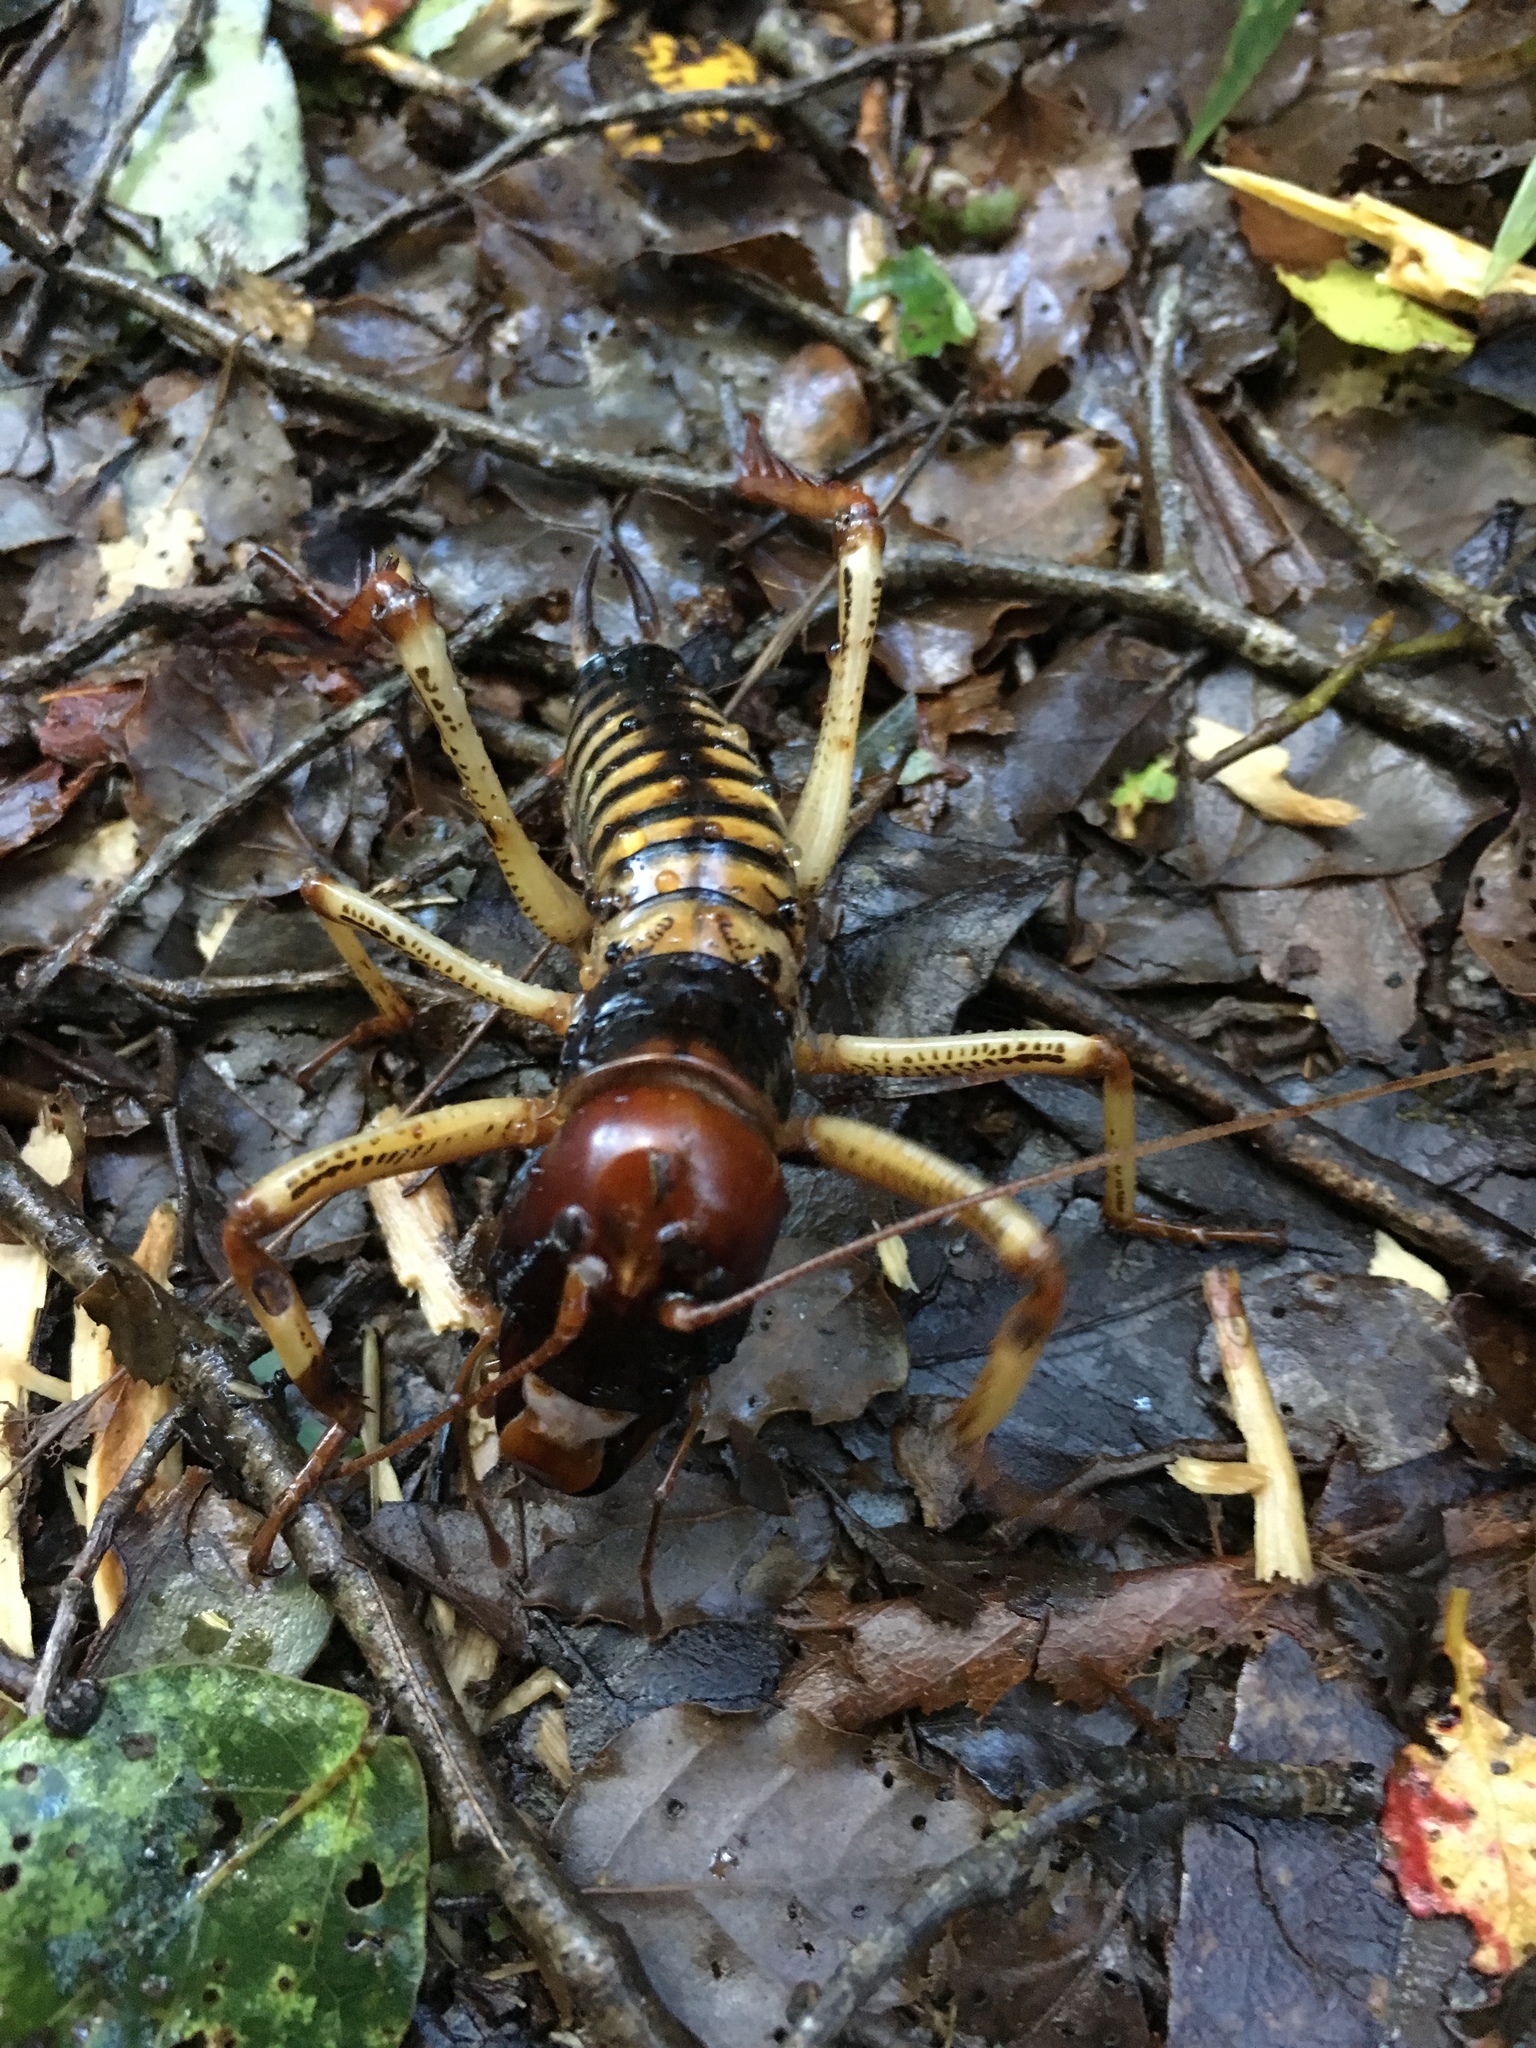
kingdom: Animalia
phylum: Arthropoda
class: Insecta
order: Orthoptera
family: Anostostomatidae
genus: Hemideina
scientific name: Hemideina crassidens
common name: Wellington tree weta
